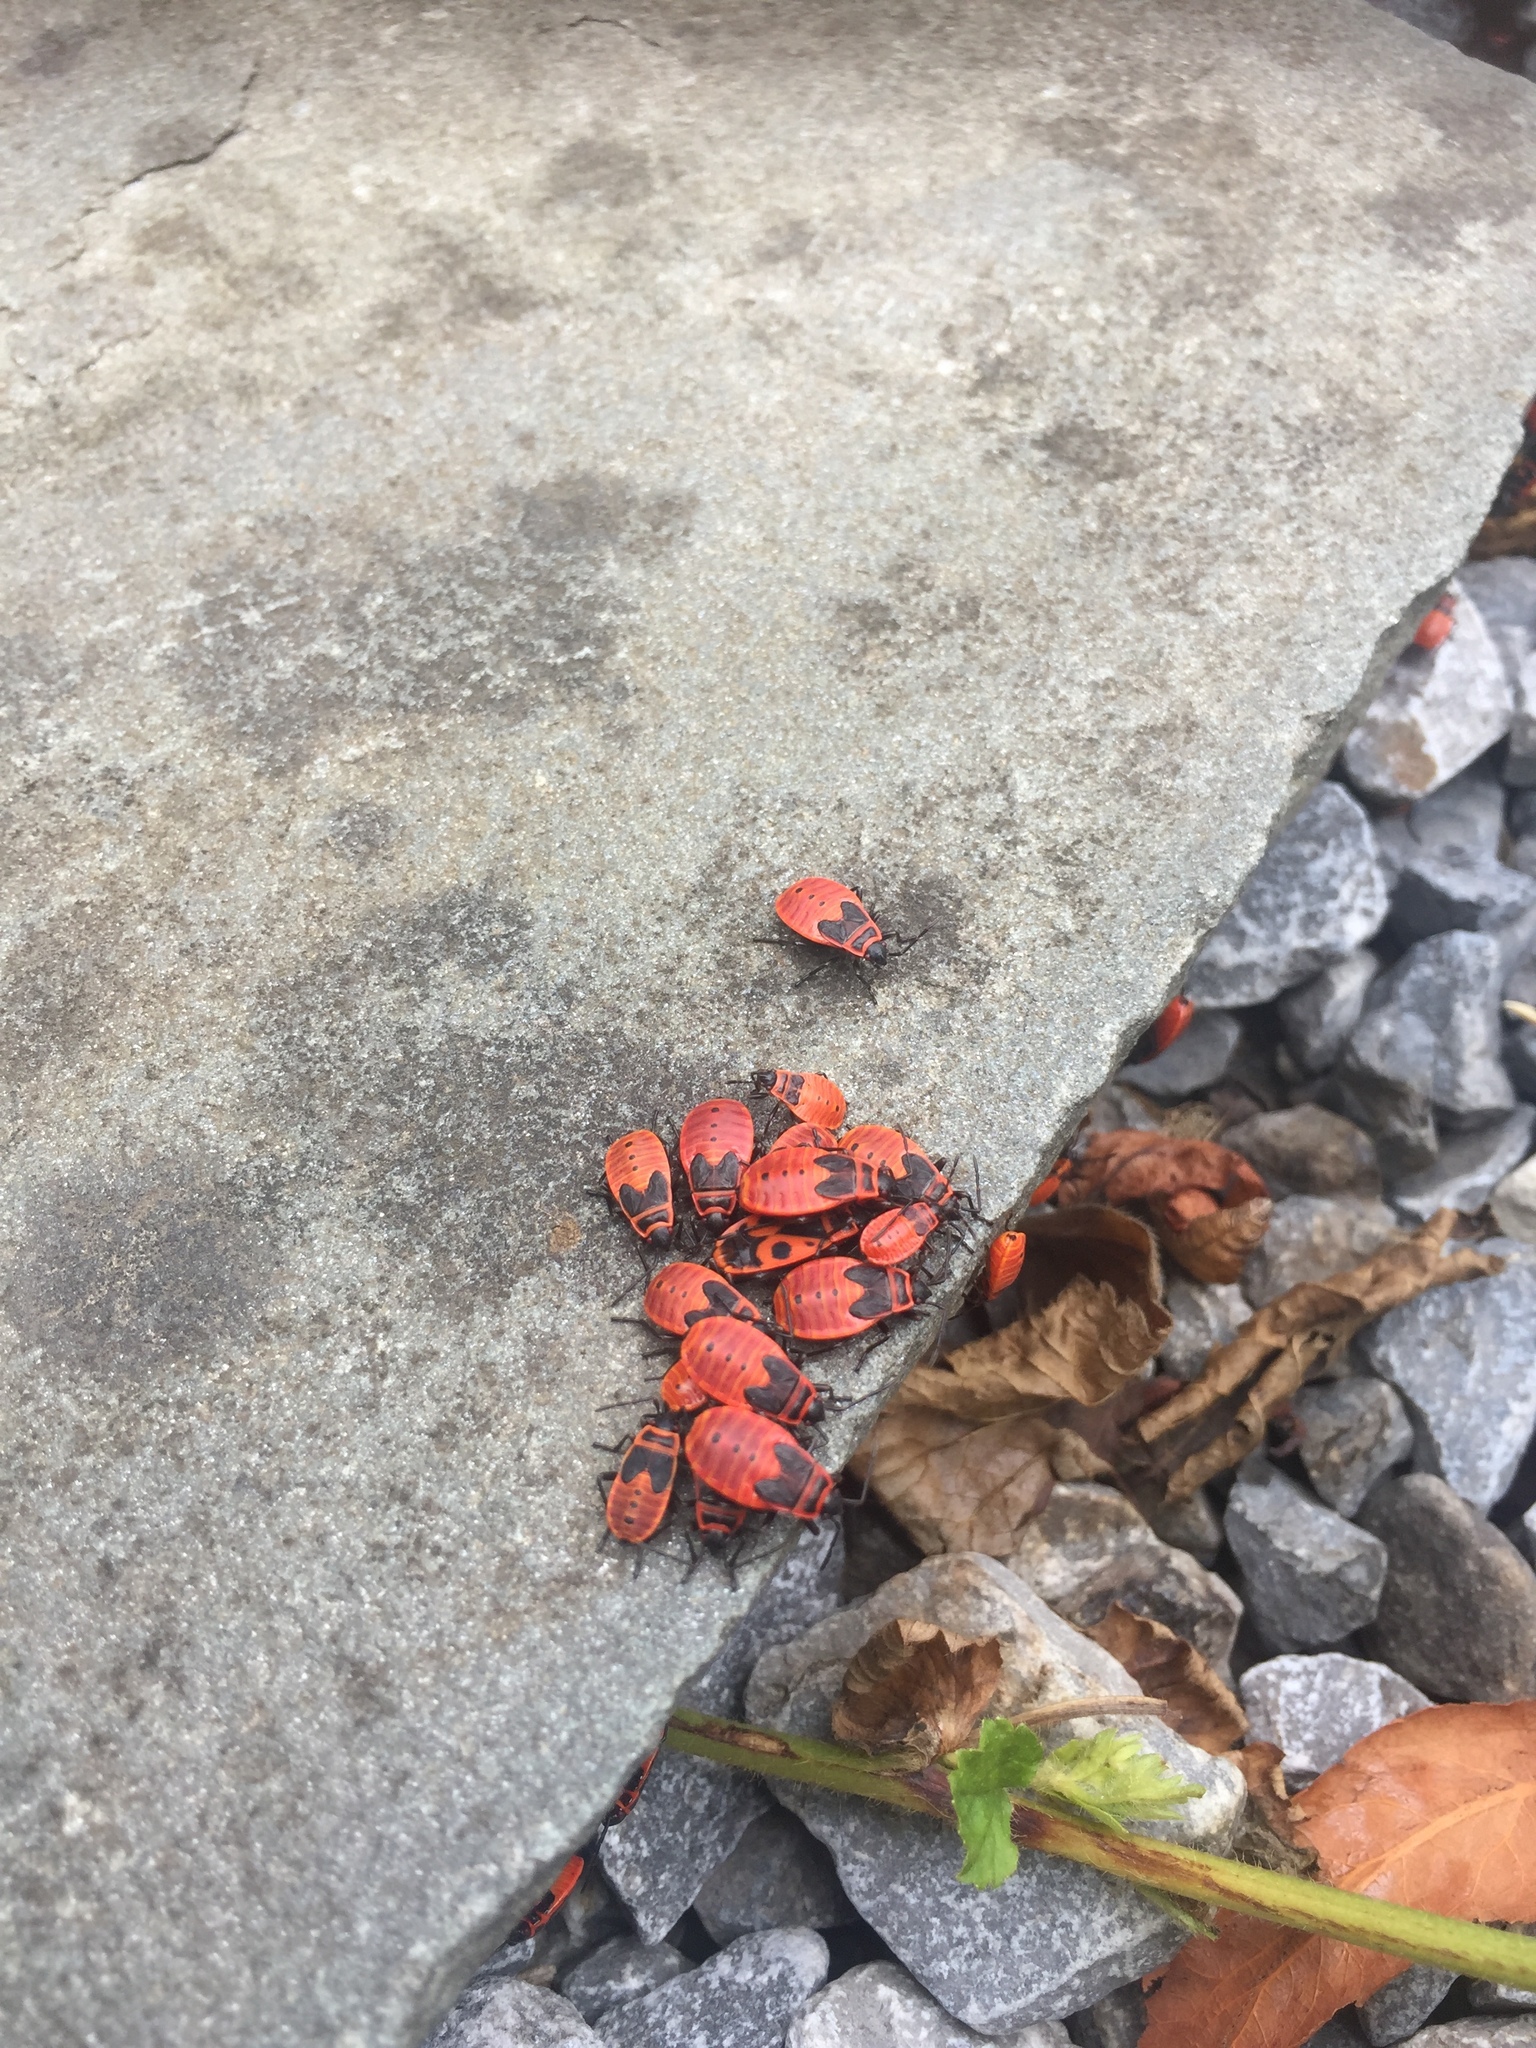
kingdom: Animalia
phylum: Arthropoda
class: Insecta
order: Hemiptera
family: Pyrrhocoridae
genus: Pyrrhocoris
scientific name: Pyrrhocoris apterus
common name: Firebug
